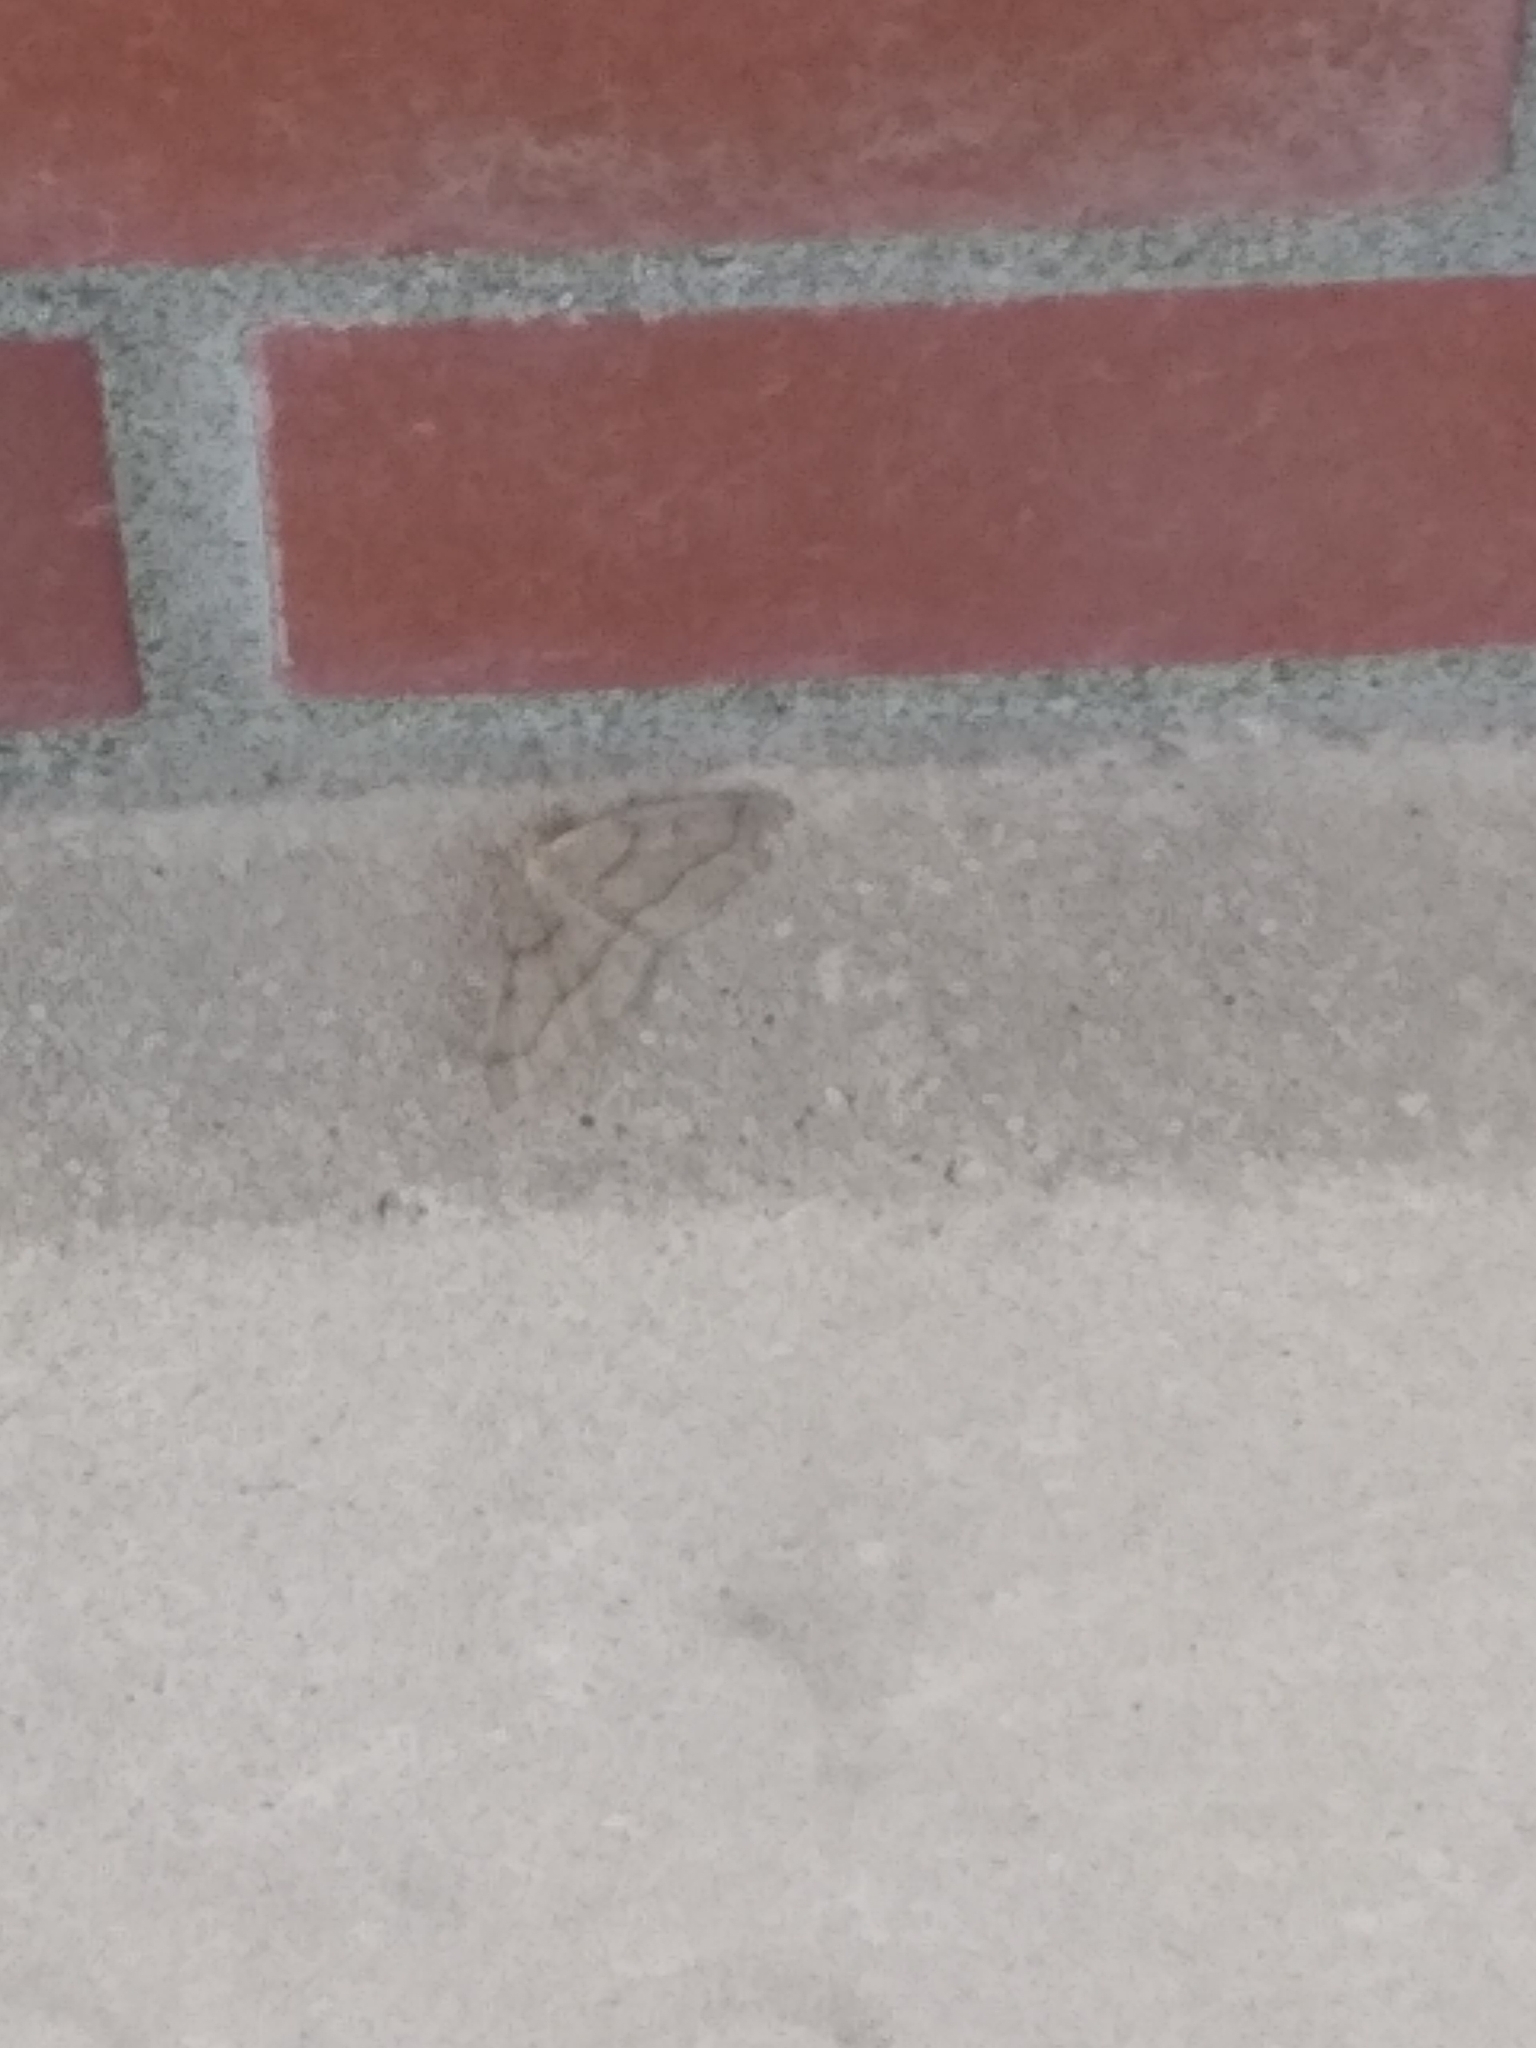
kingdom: Animalia
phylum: Arthropoda
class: Insecta
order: Lepidoptera
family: Geometridae
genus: Lambdina
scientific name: Lambdina fiscellaria
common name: Hemlock looper
